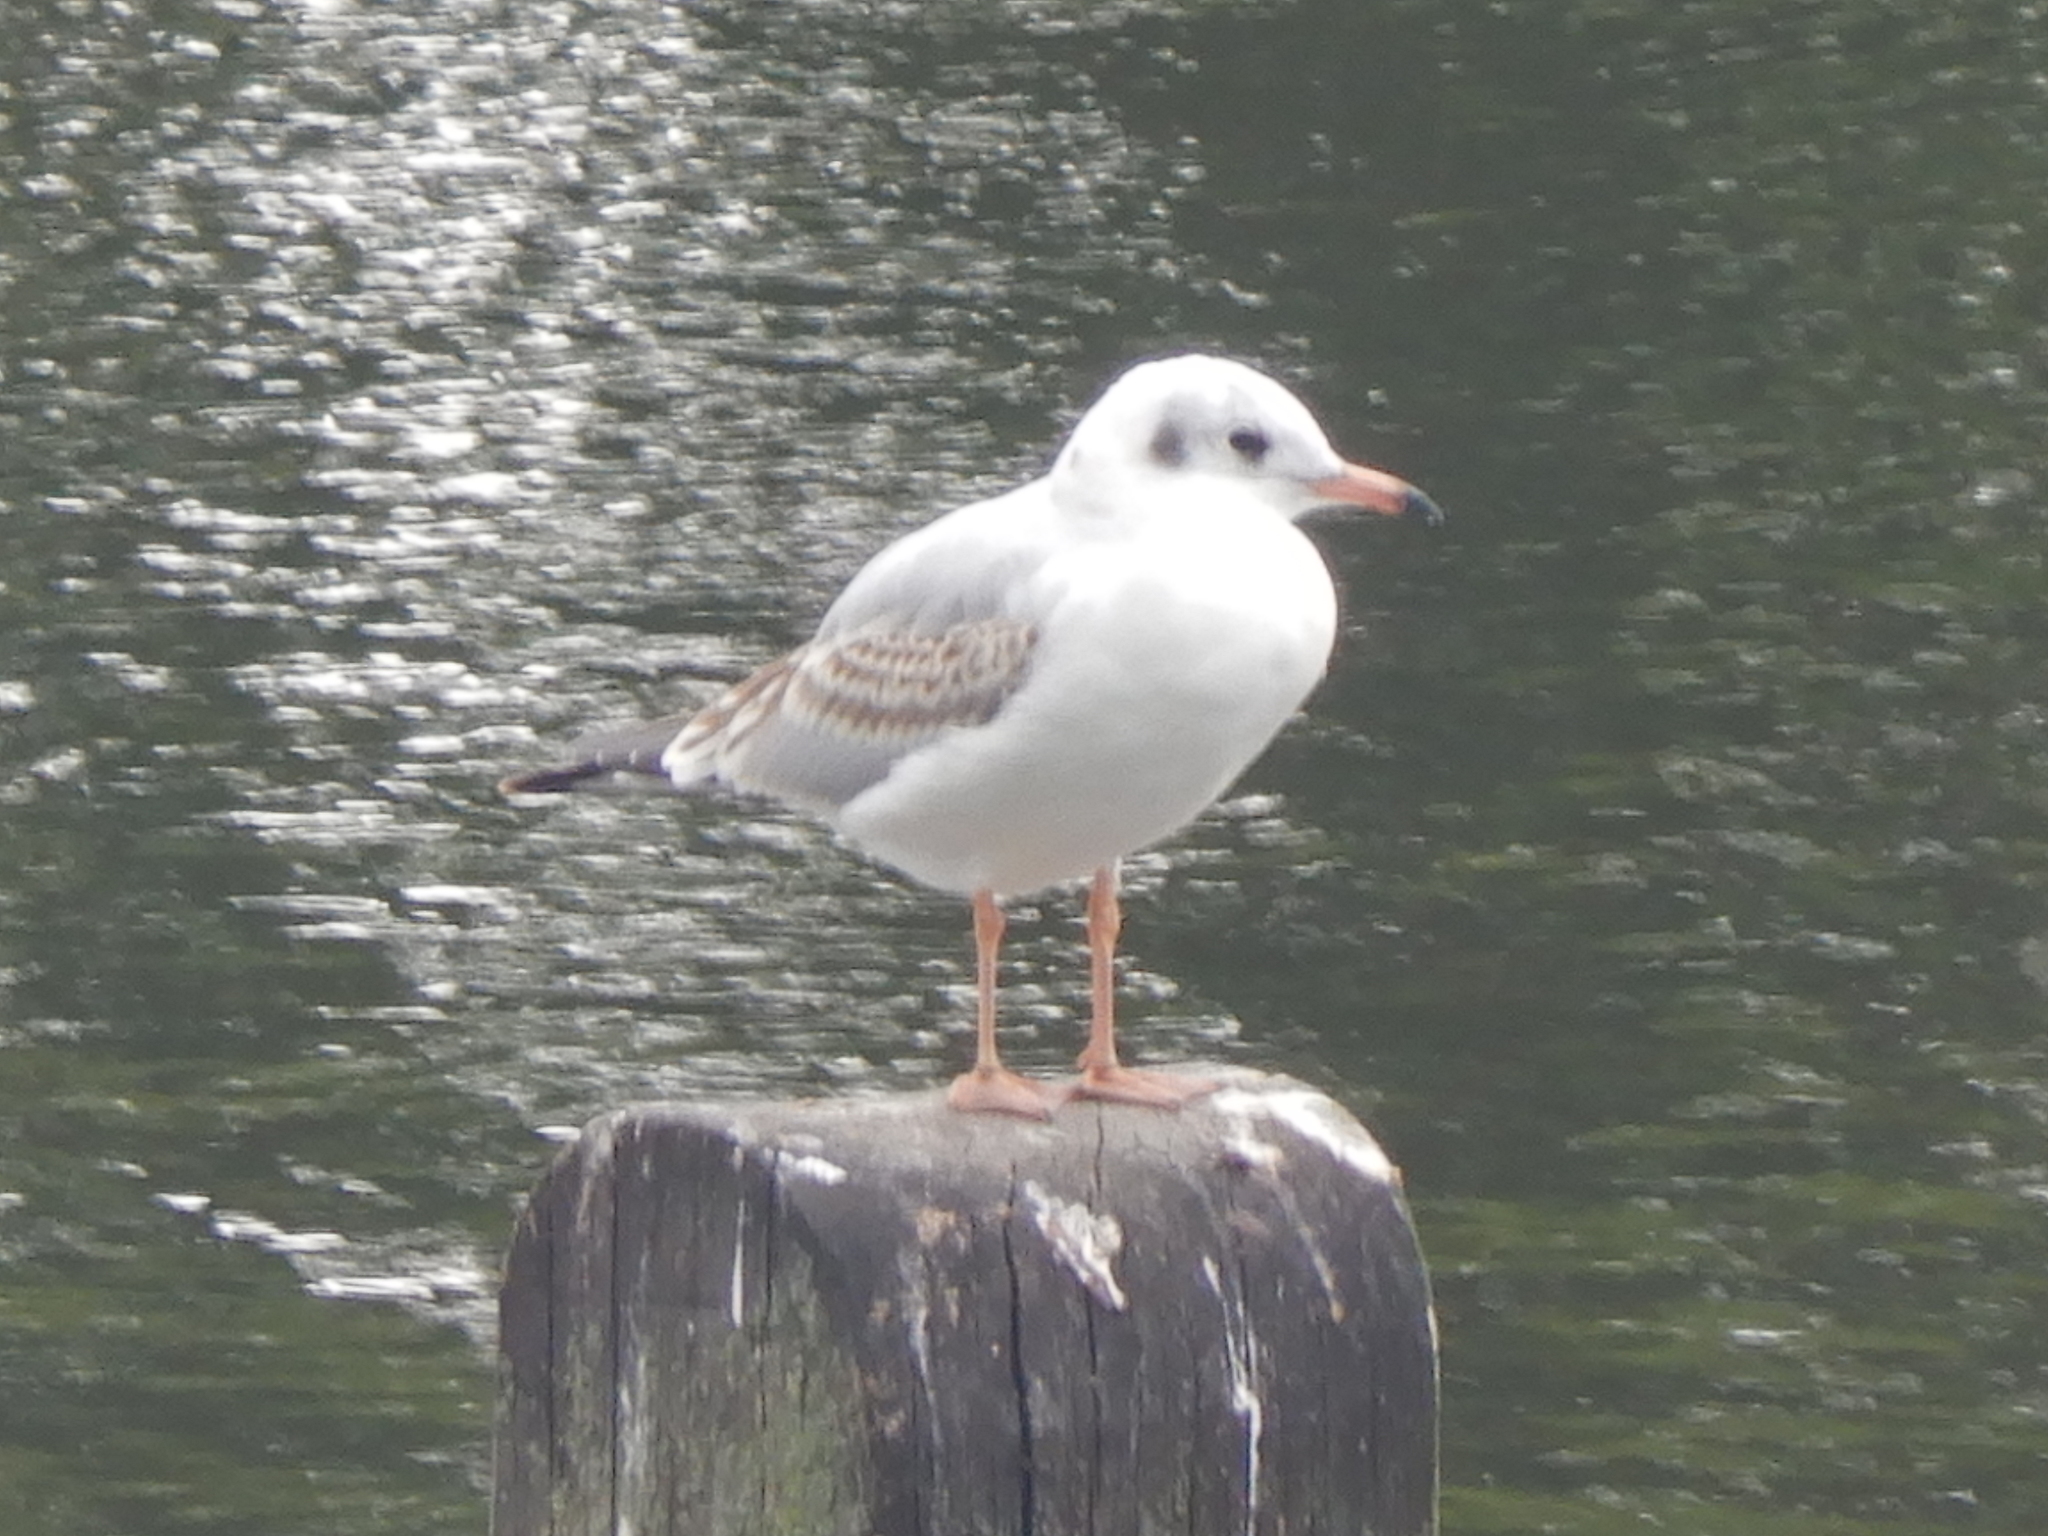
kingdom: Animalia
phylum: Chordata
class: Aves
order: Charadriiformes
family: Laridae
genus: Chroicocephalus
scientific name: Chroicocephalus ridibundus
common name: Black-headed gull
